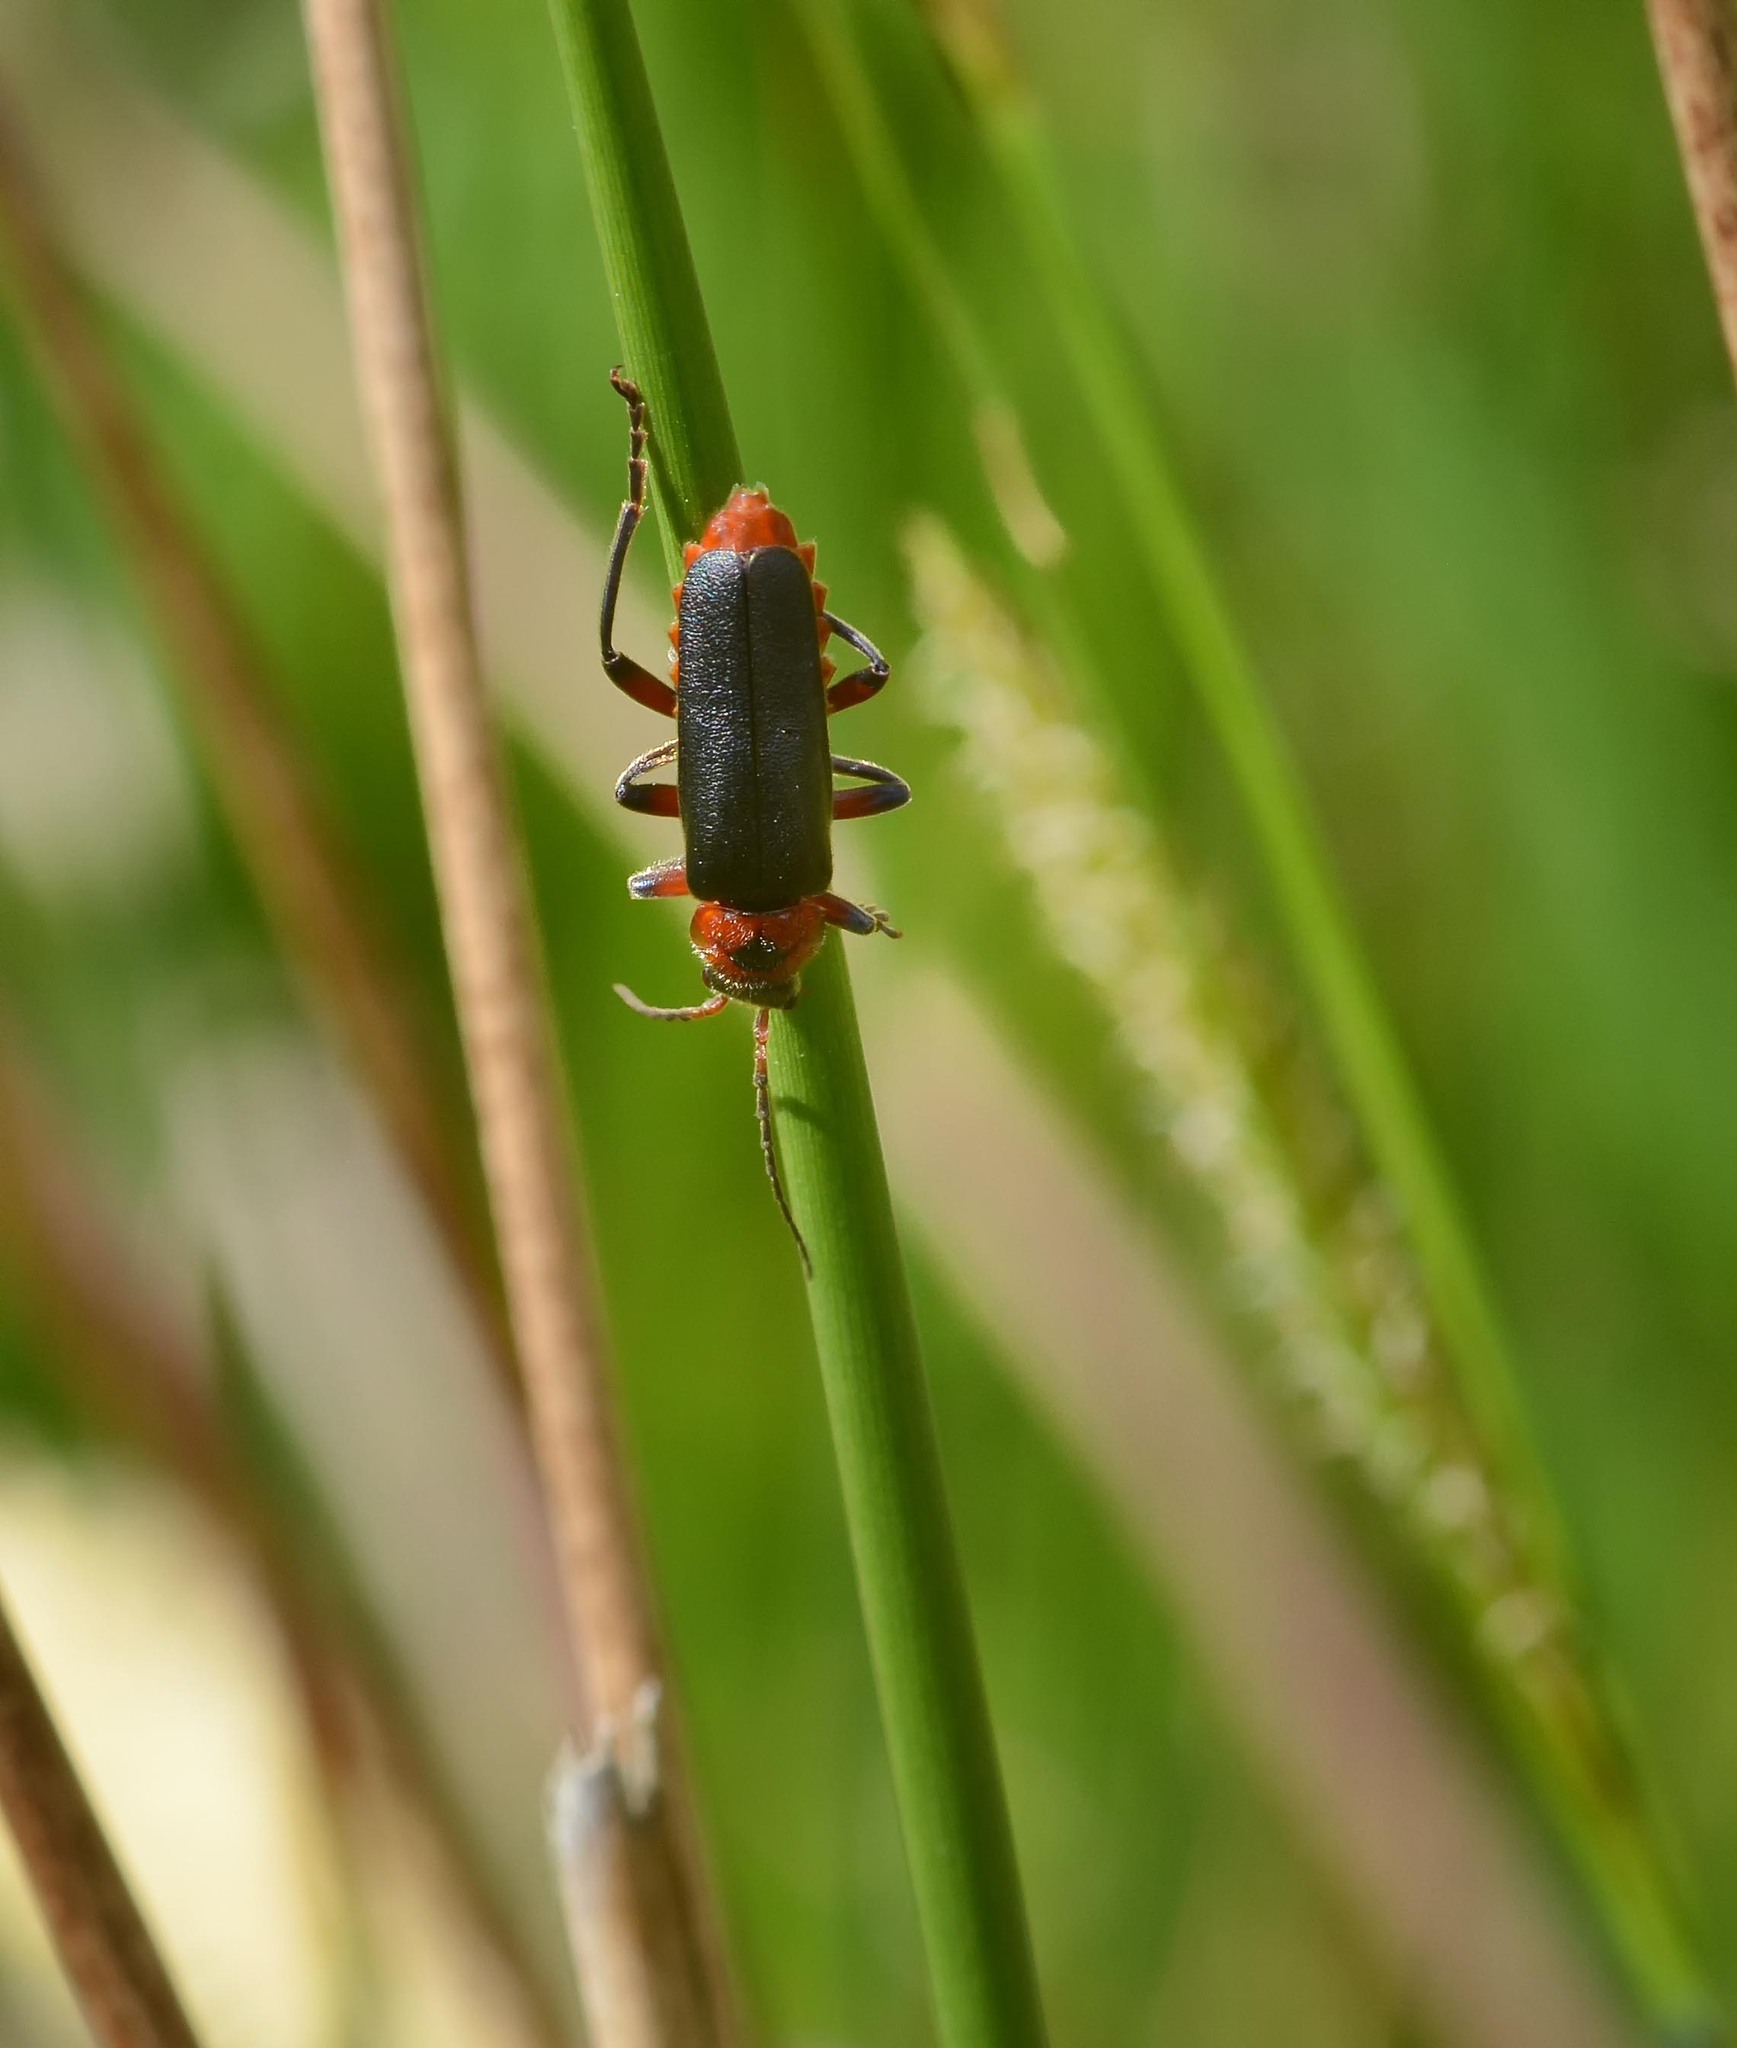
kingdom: Animalia
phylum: Arthropoda
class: Insecta
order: Coleoptera
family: Cantharidae
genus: Cantharis
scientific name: Cantharis rustica
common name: Soldier beetle
